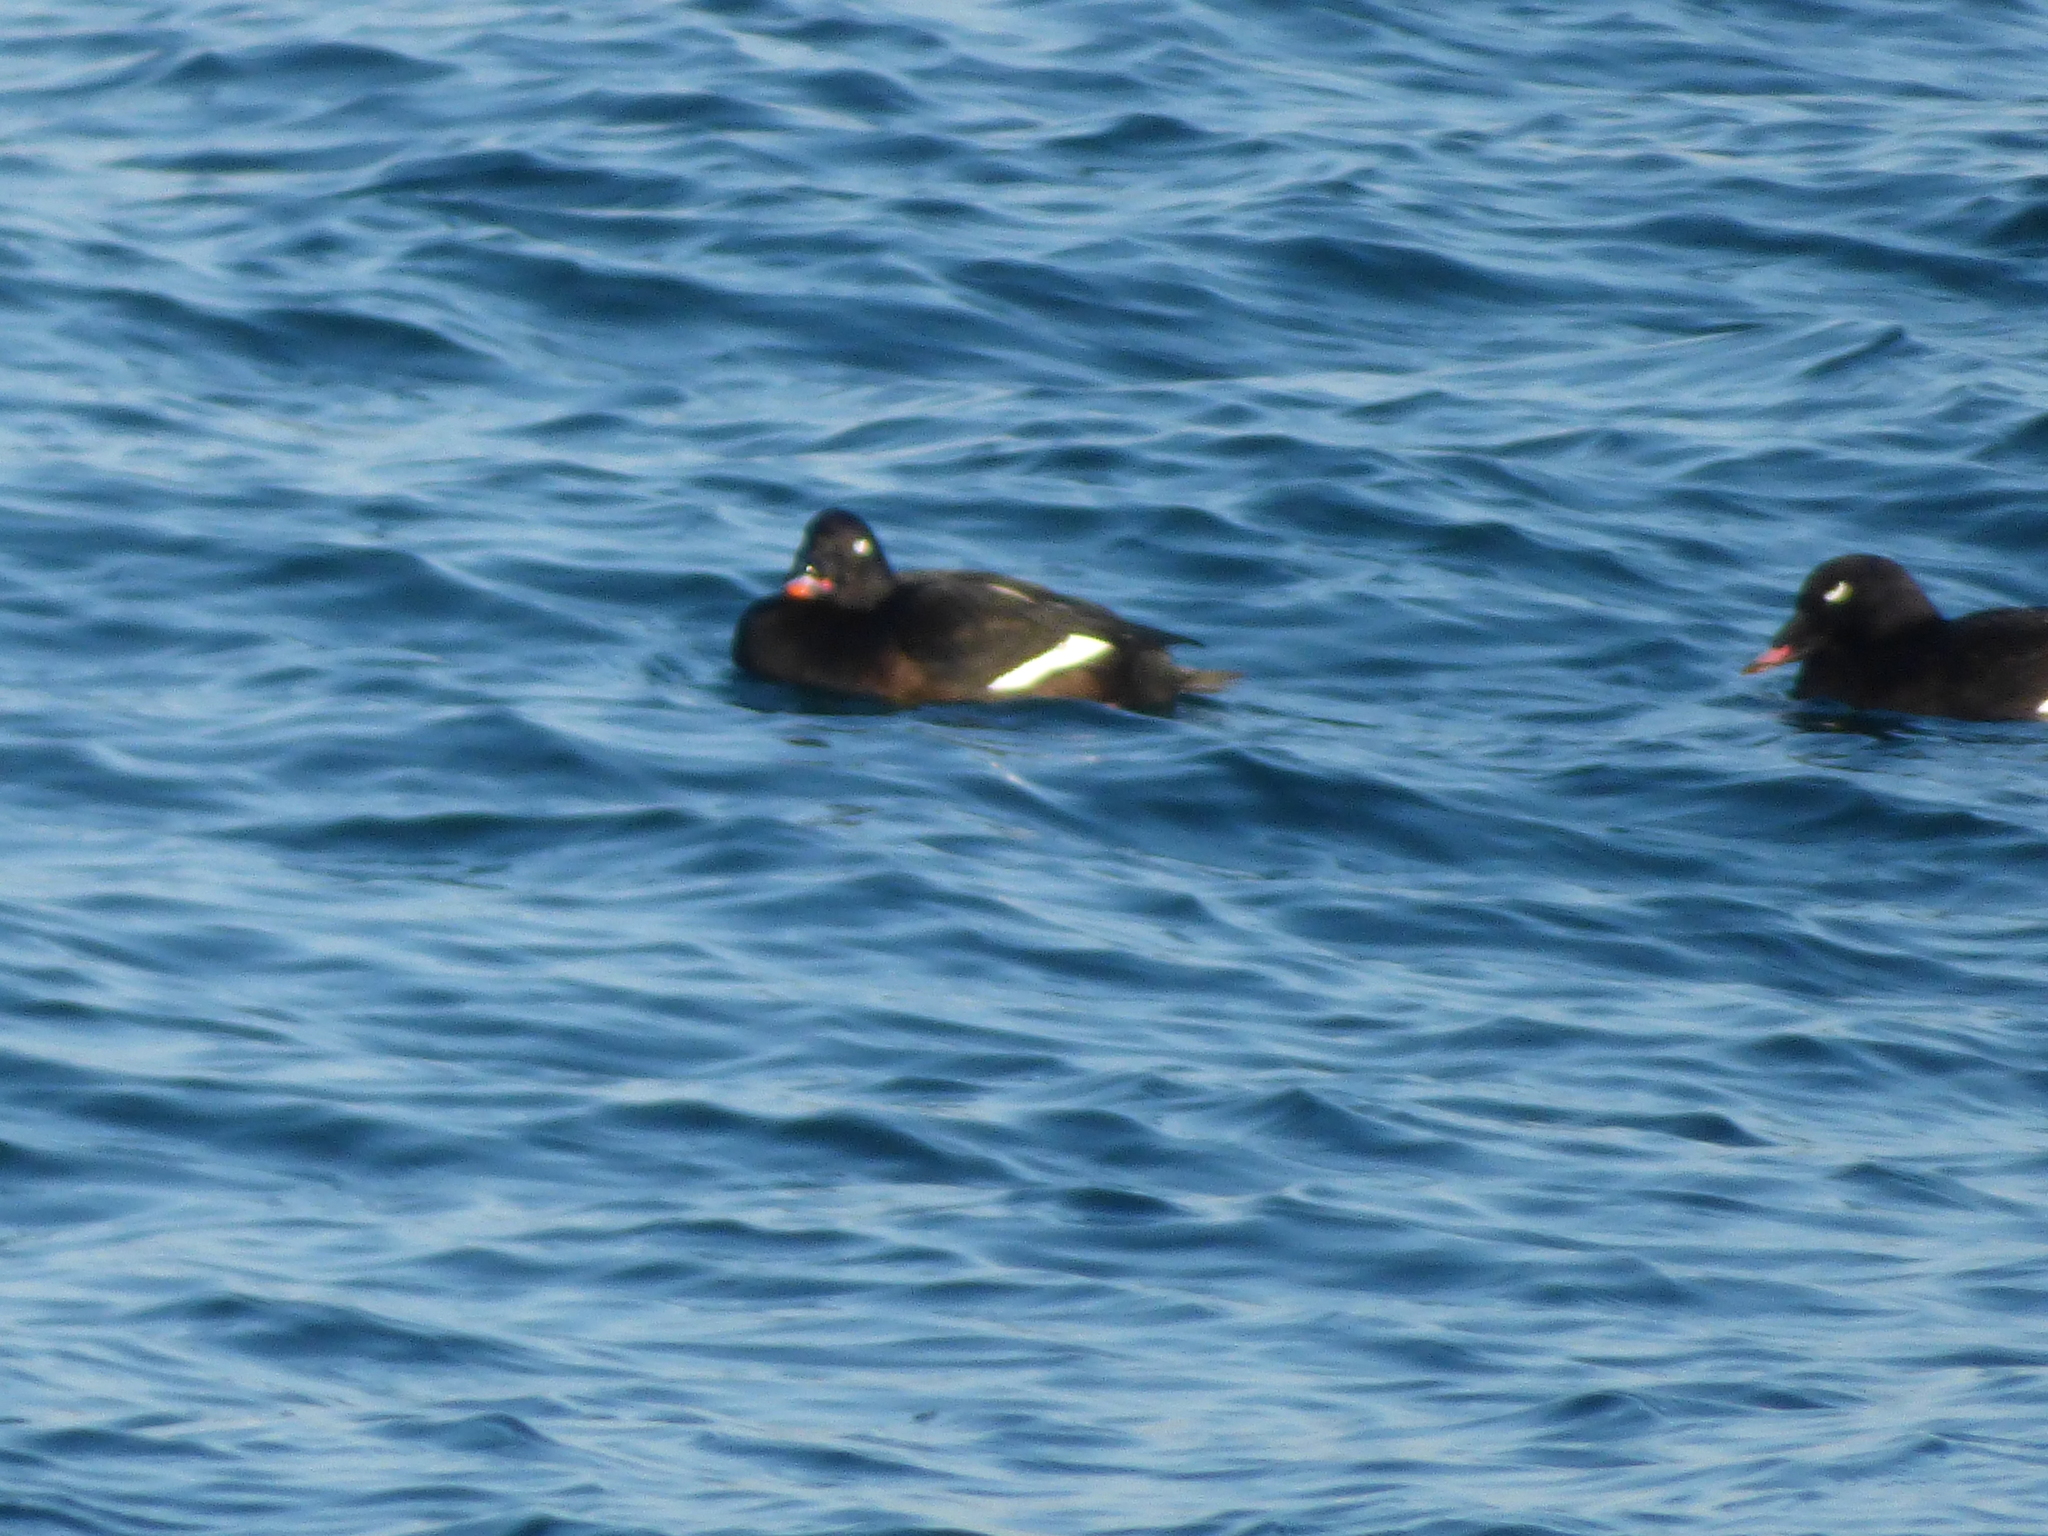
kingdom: Animalia
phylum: Chordata
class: Aves
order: Anseriformes
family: Anatidae
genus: Melanitta
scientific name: Melanitta deglandi
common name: White-winged scoter
